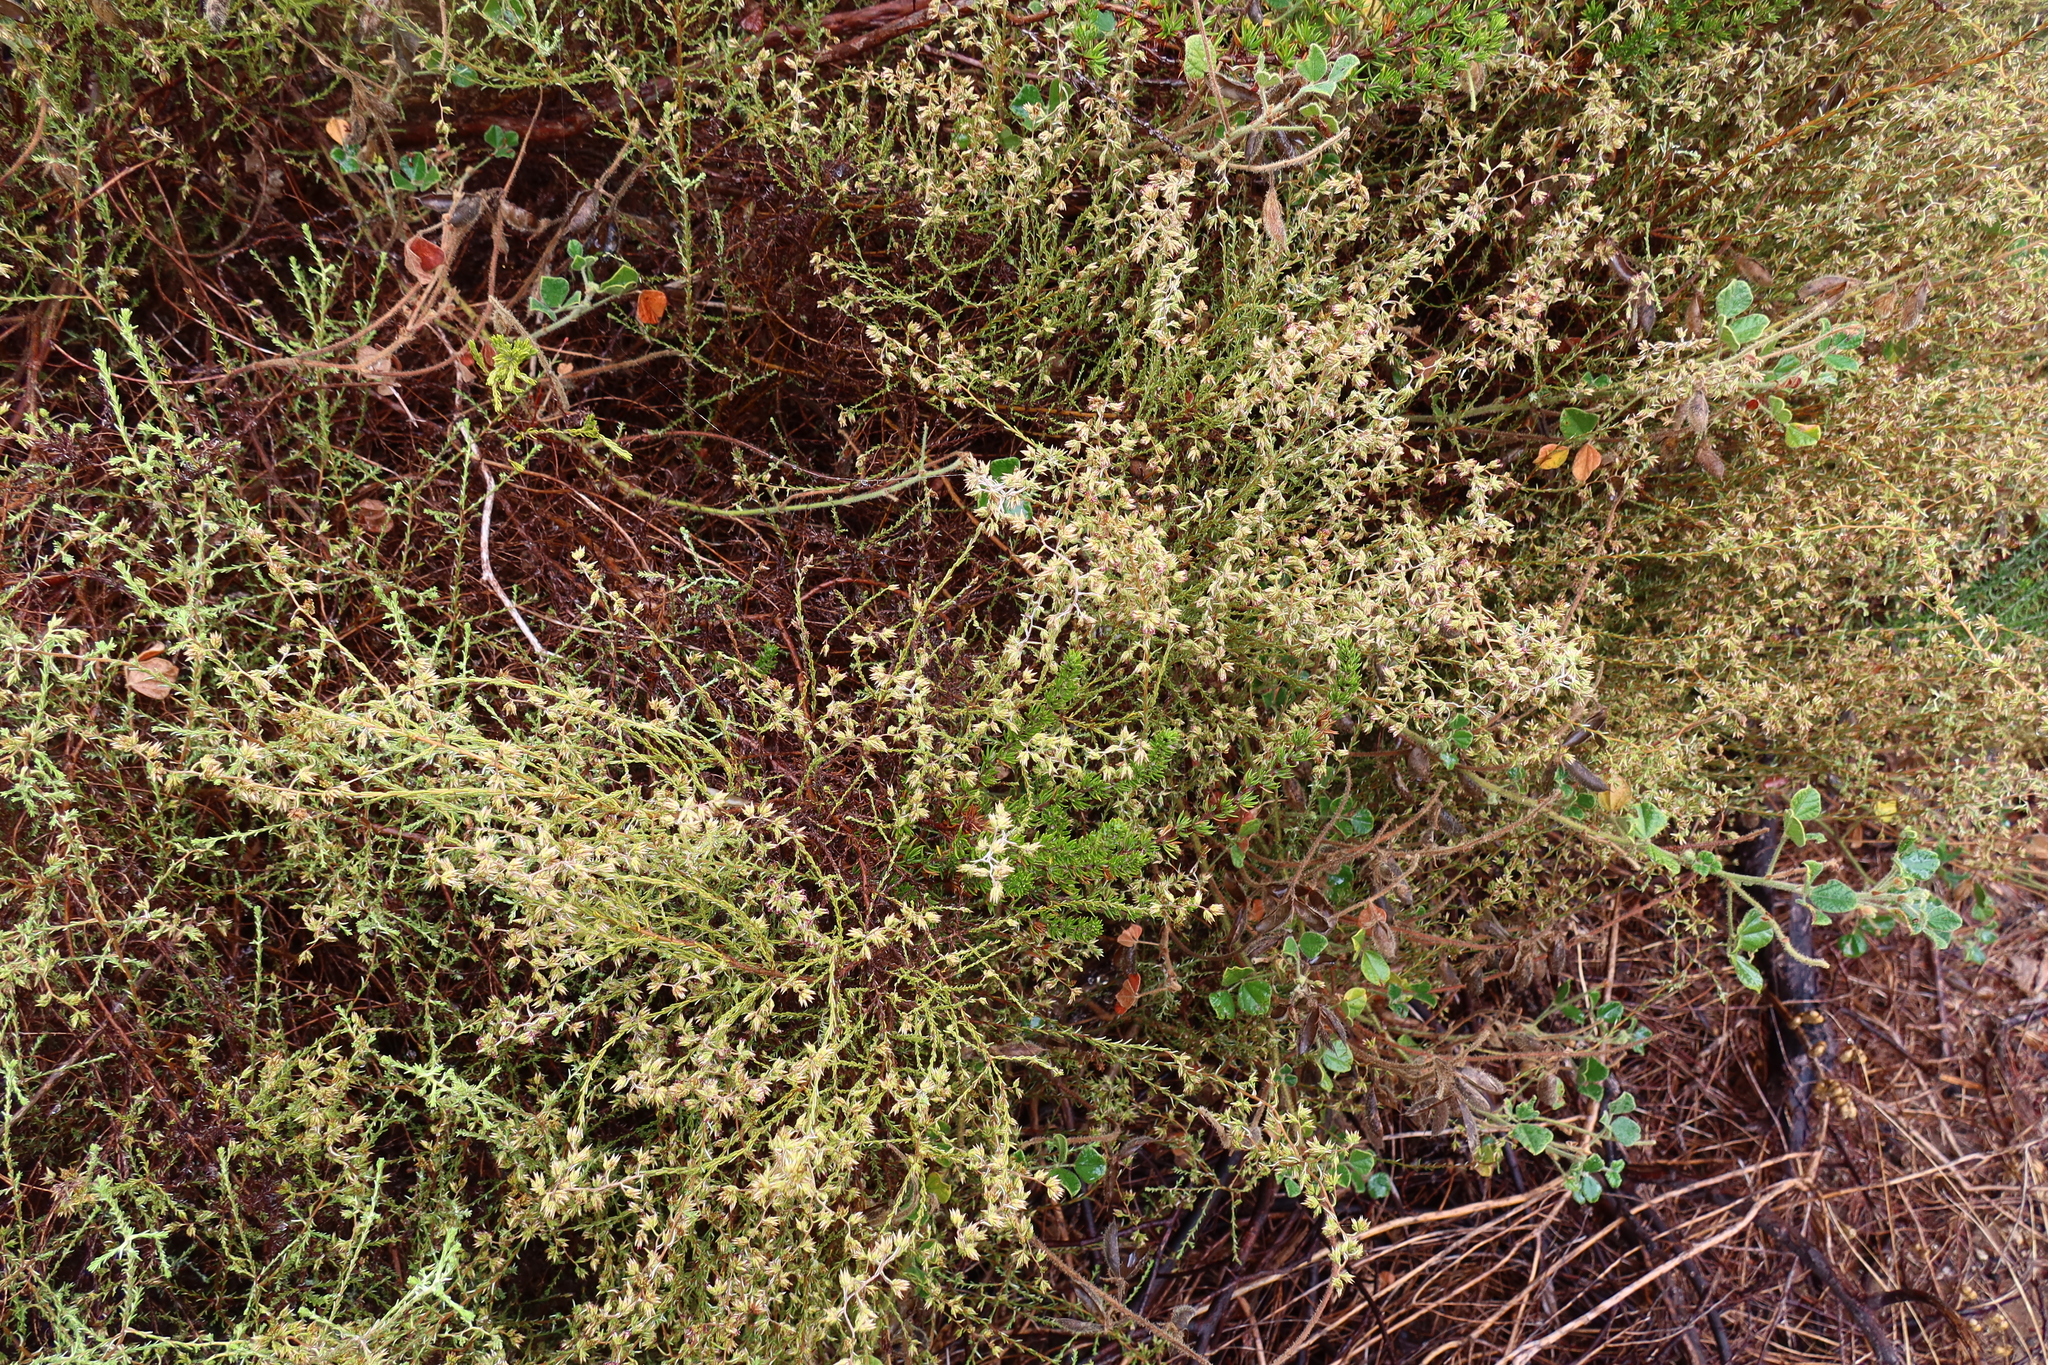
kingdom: Plantae
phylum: Tracheophyta
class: Magnoliopsida
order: Asterales
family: Asteraceae
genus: Myrovernix
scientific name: Myrovernix scaber
